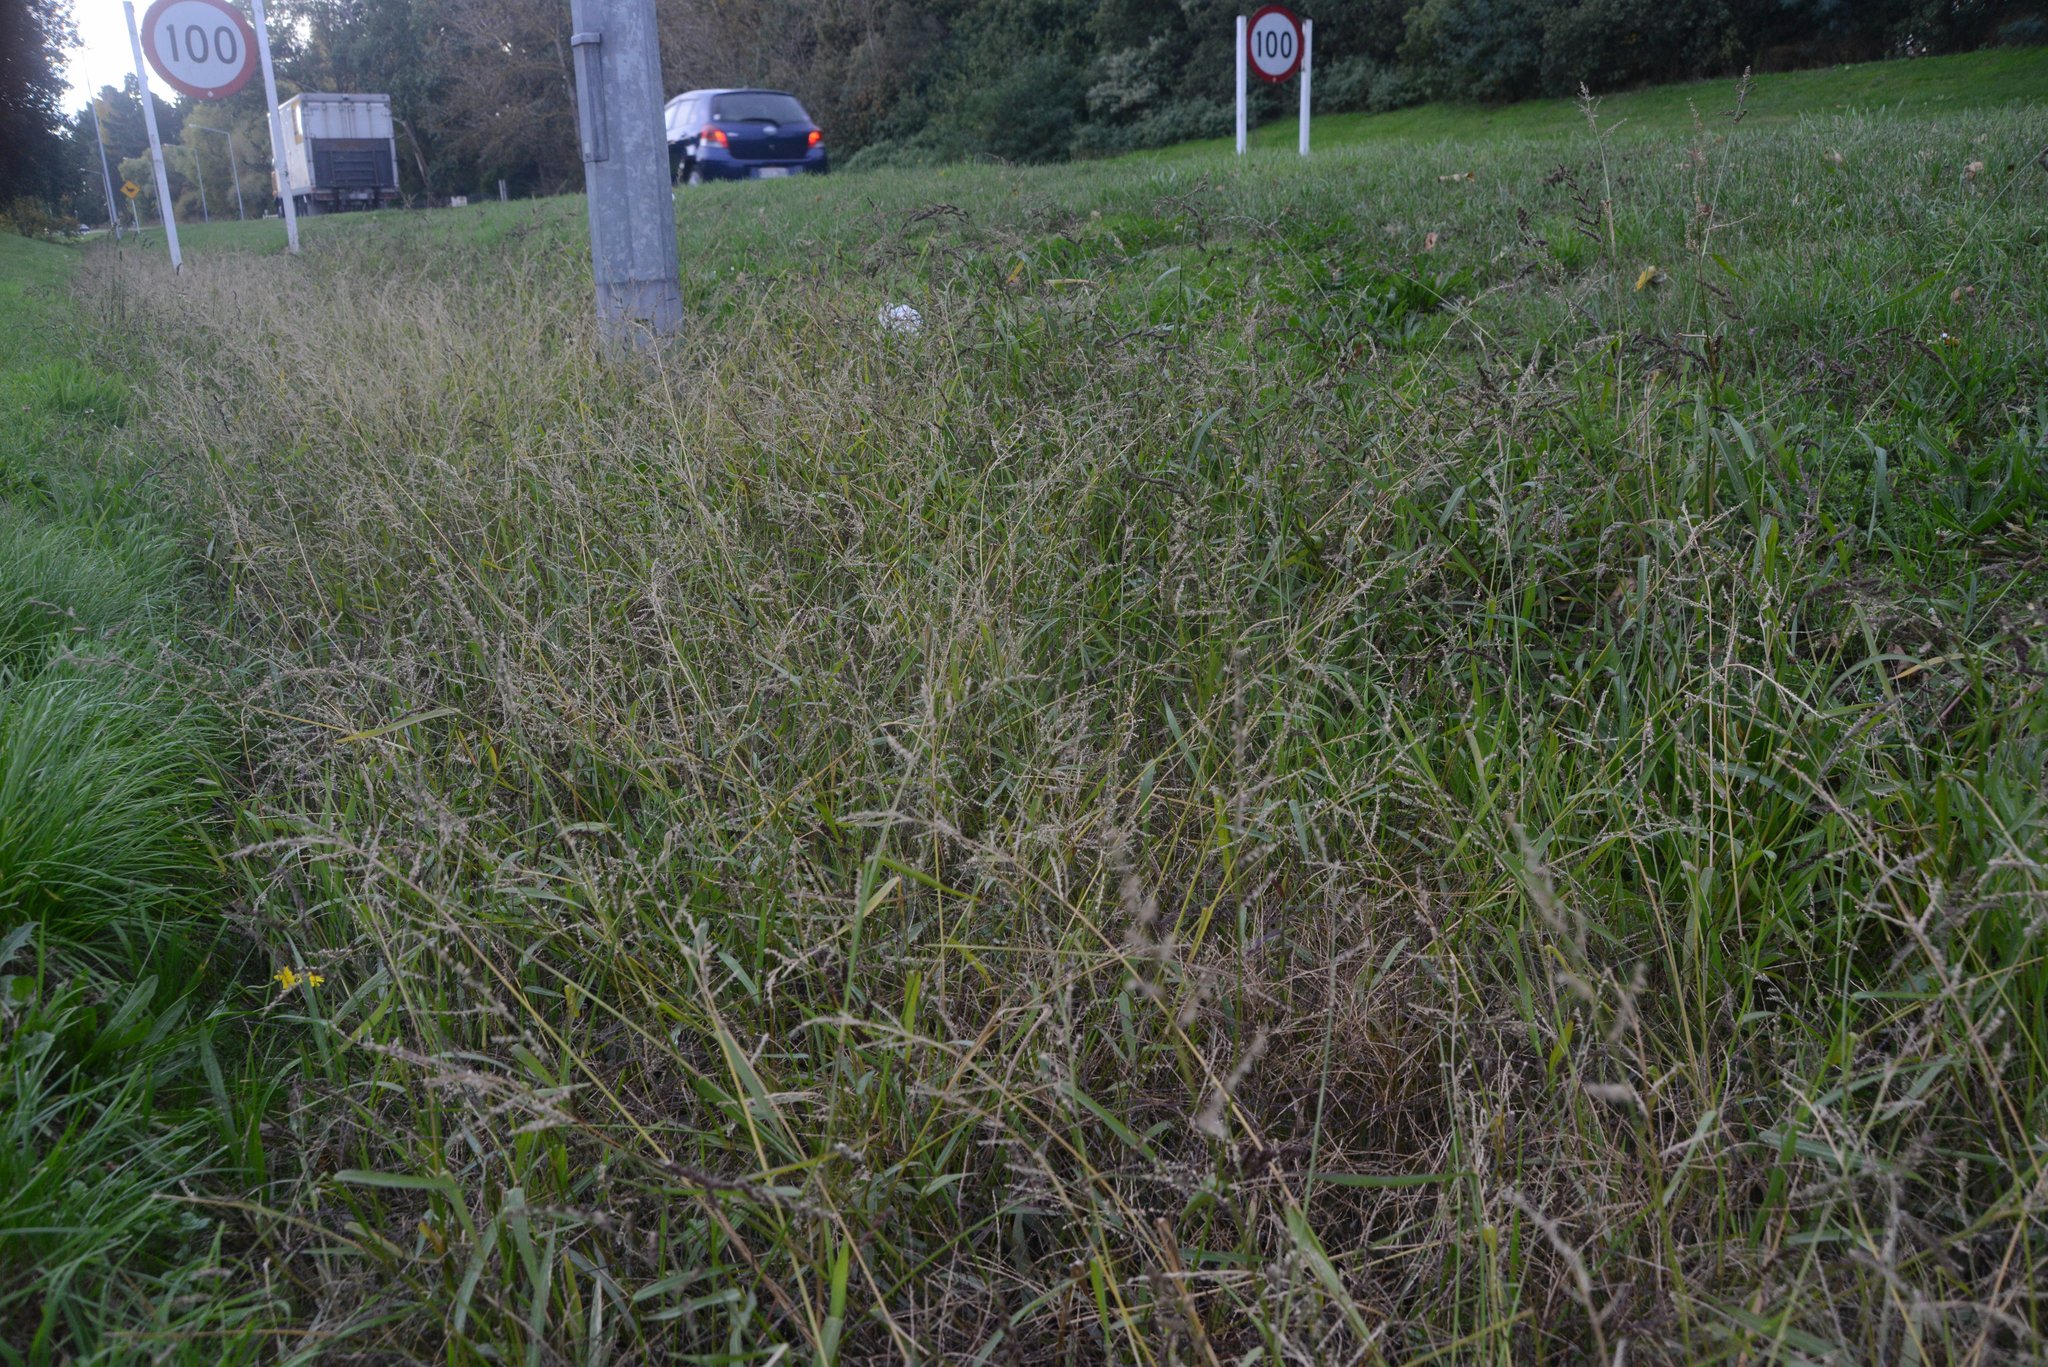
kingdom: Plantae
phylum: Tracheophyta
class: Liliopsida
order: Poales
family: Poaceae
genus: Echinochloa
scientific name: Echinochloa crus-galli
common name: Cockspur
